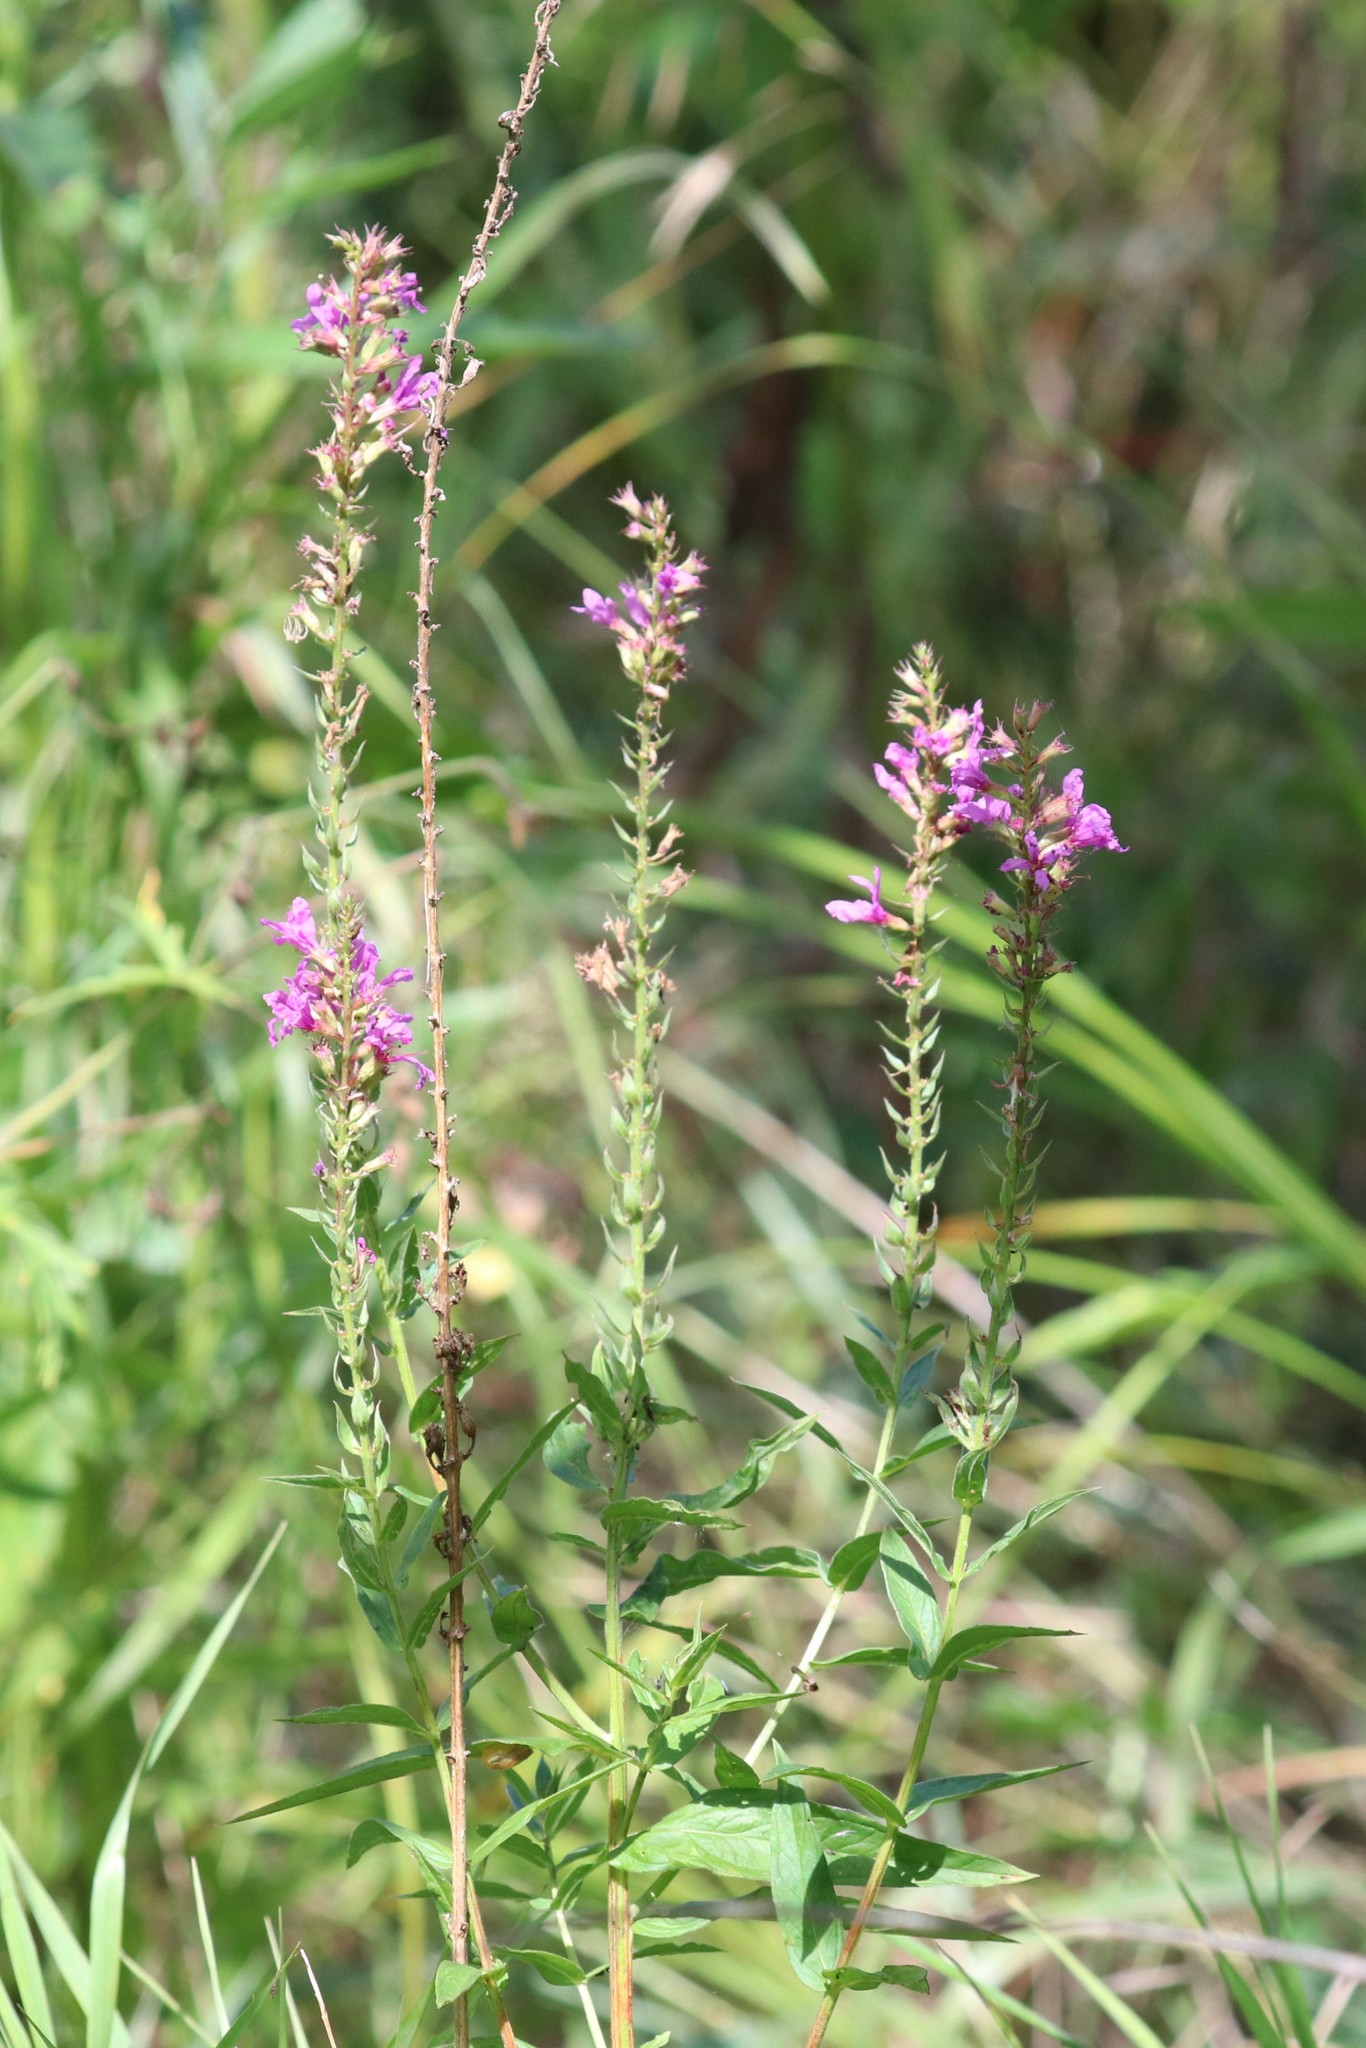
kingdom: Plantae
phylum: Tracheophyta
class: Magnoliopsida
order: Myrtales
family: Lythraceae
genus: Lythrum
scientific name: Lythrum salicaria
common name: Purple loosestrife
